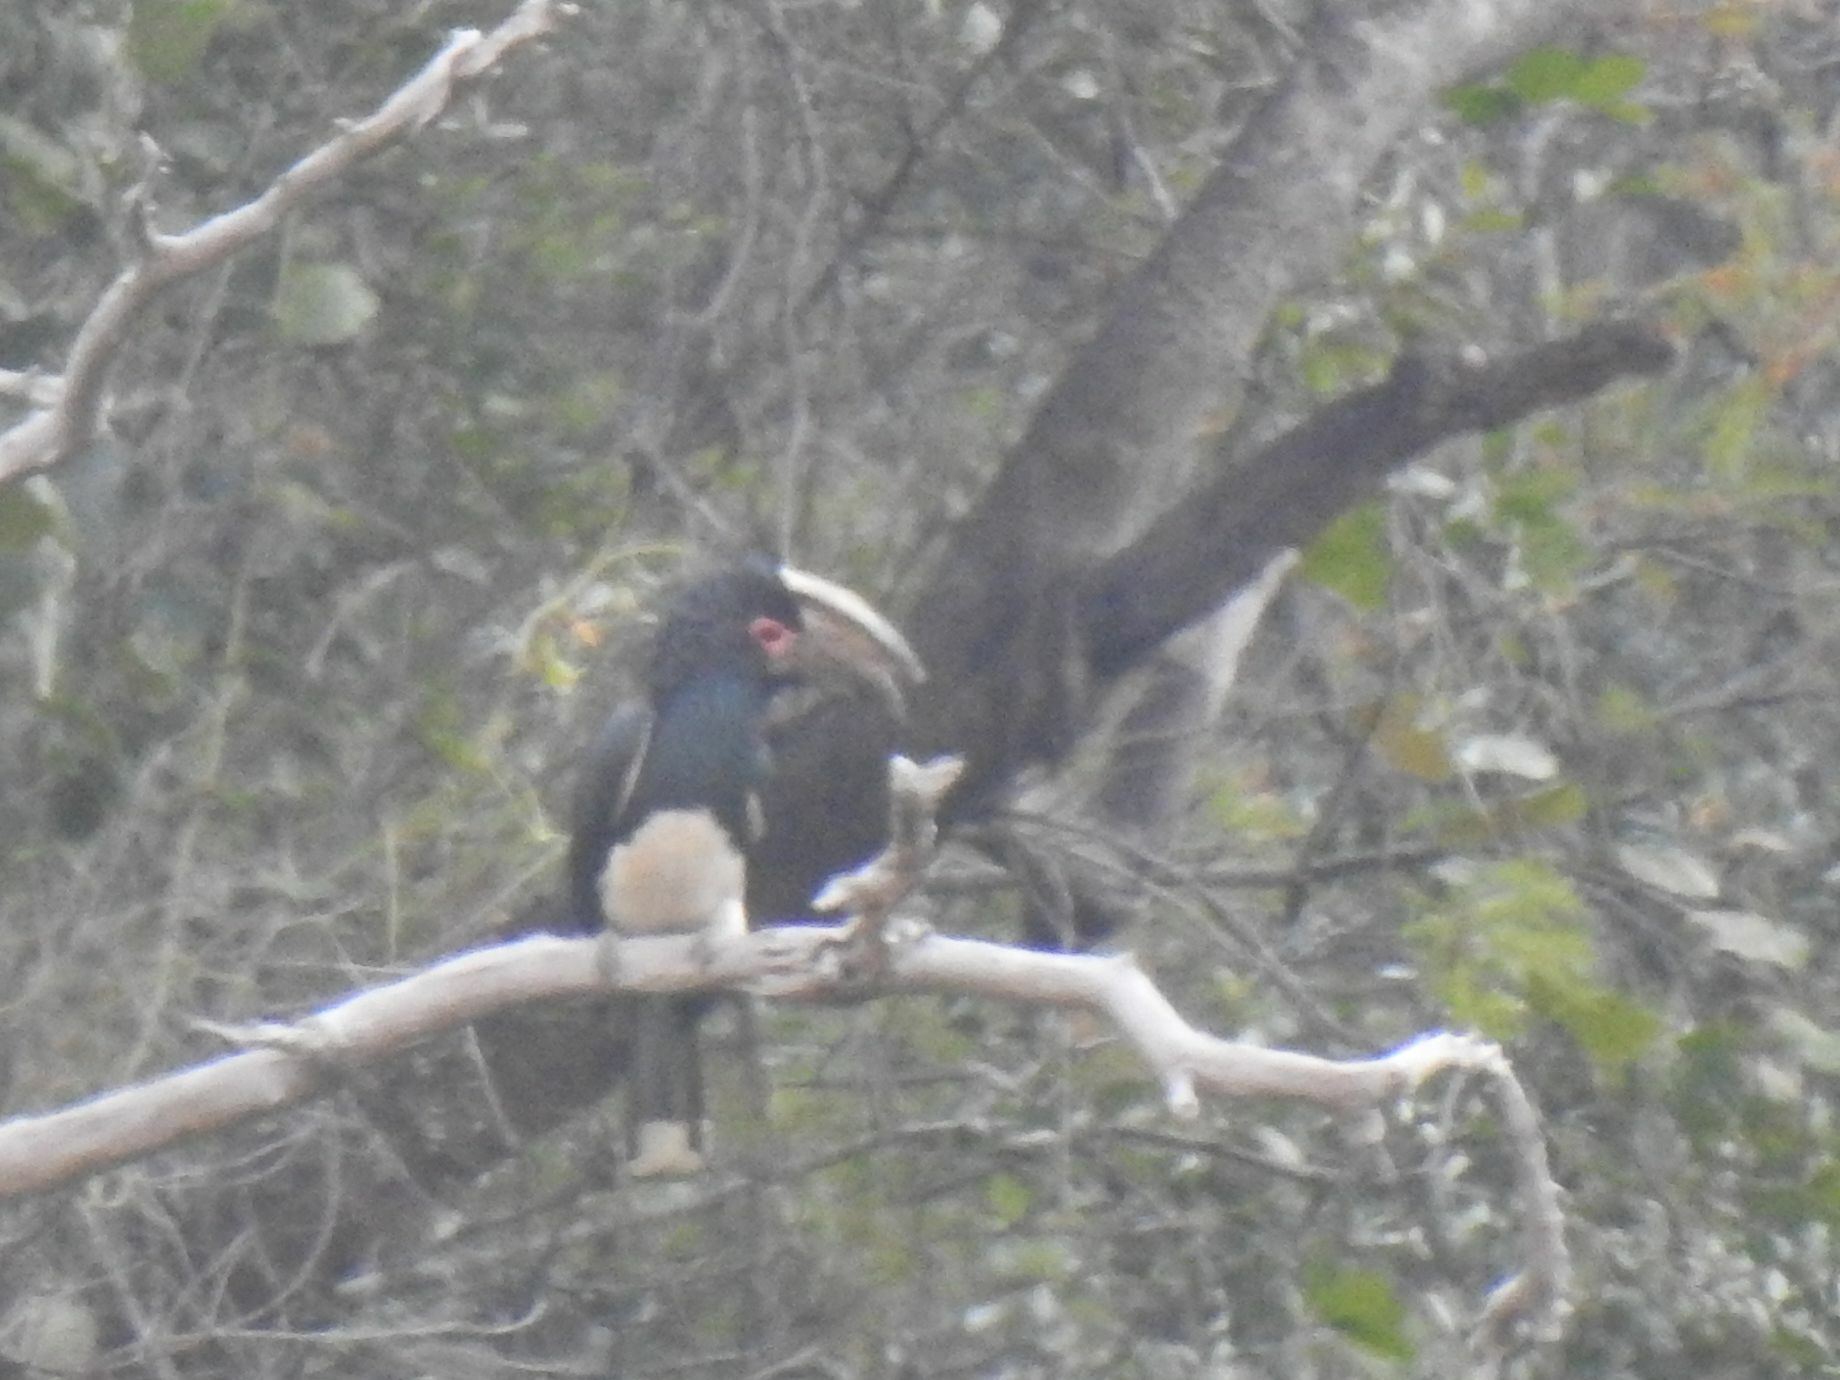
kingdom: Animalia
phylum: Chordata
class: Aves
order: Bucerotiformes
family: Bucerotidae
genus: Bycanistes
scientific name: Bycanistes bucinator
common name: Trumpeter hornbill
